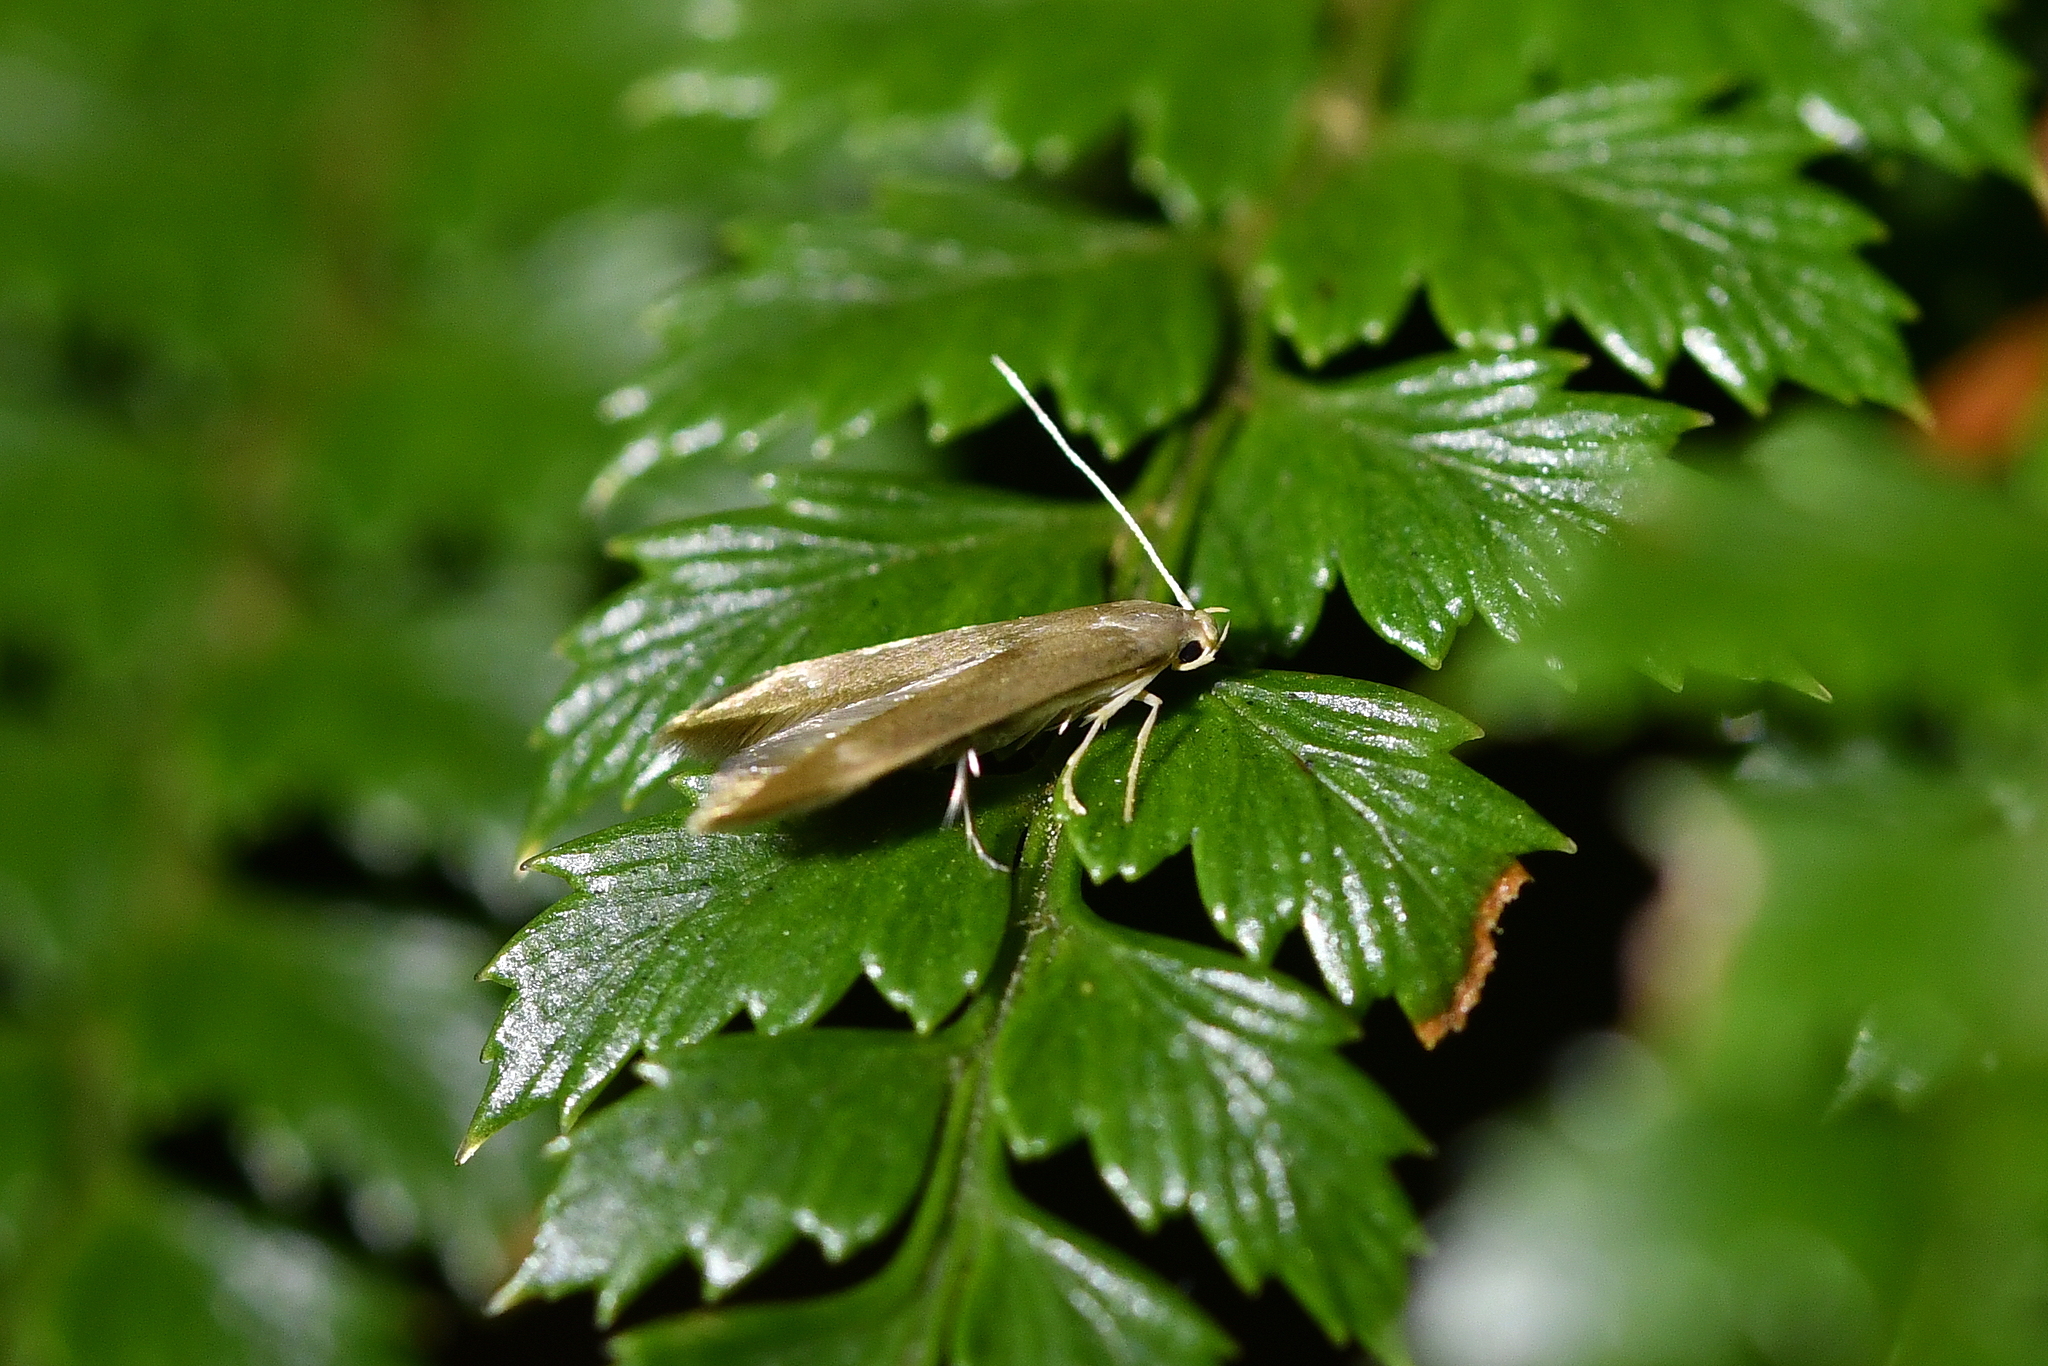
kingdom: Animalia
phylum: Arthropoda
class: Insecta
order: Lepidoptera
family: Stathmopodidae
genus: Thylacosceles
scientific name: Thylacosceles acridomima
